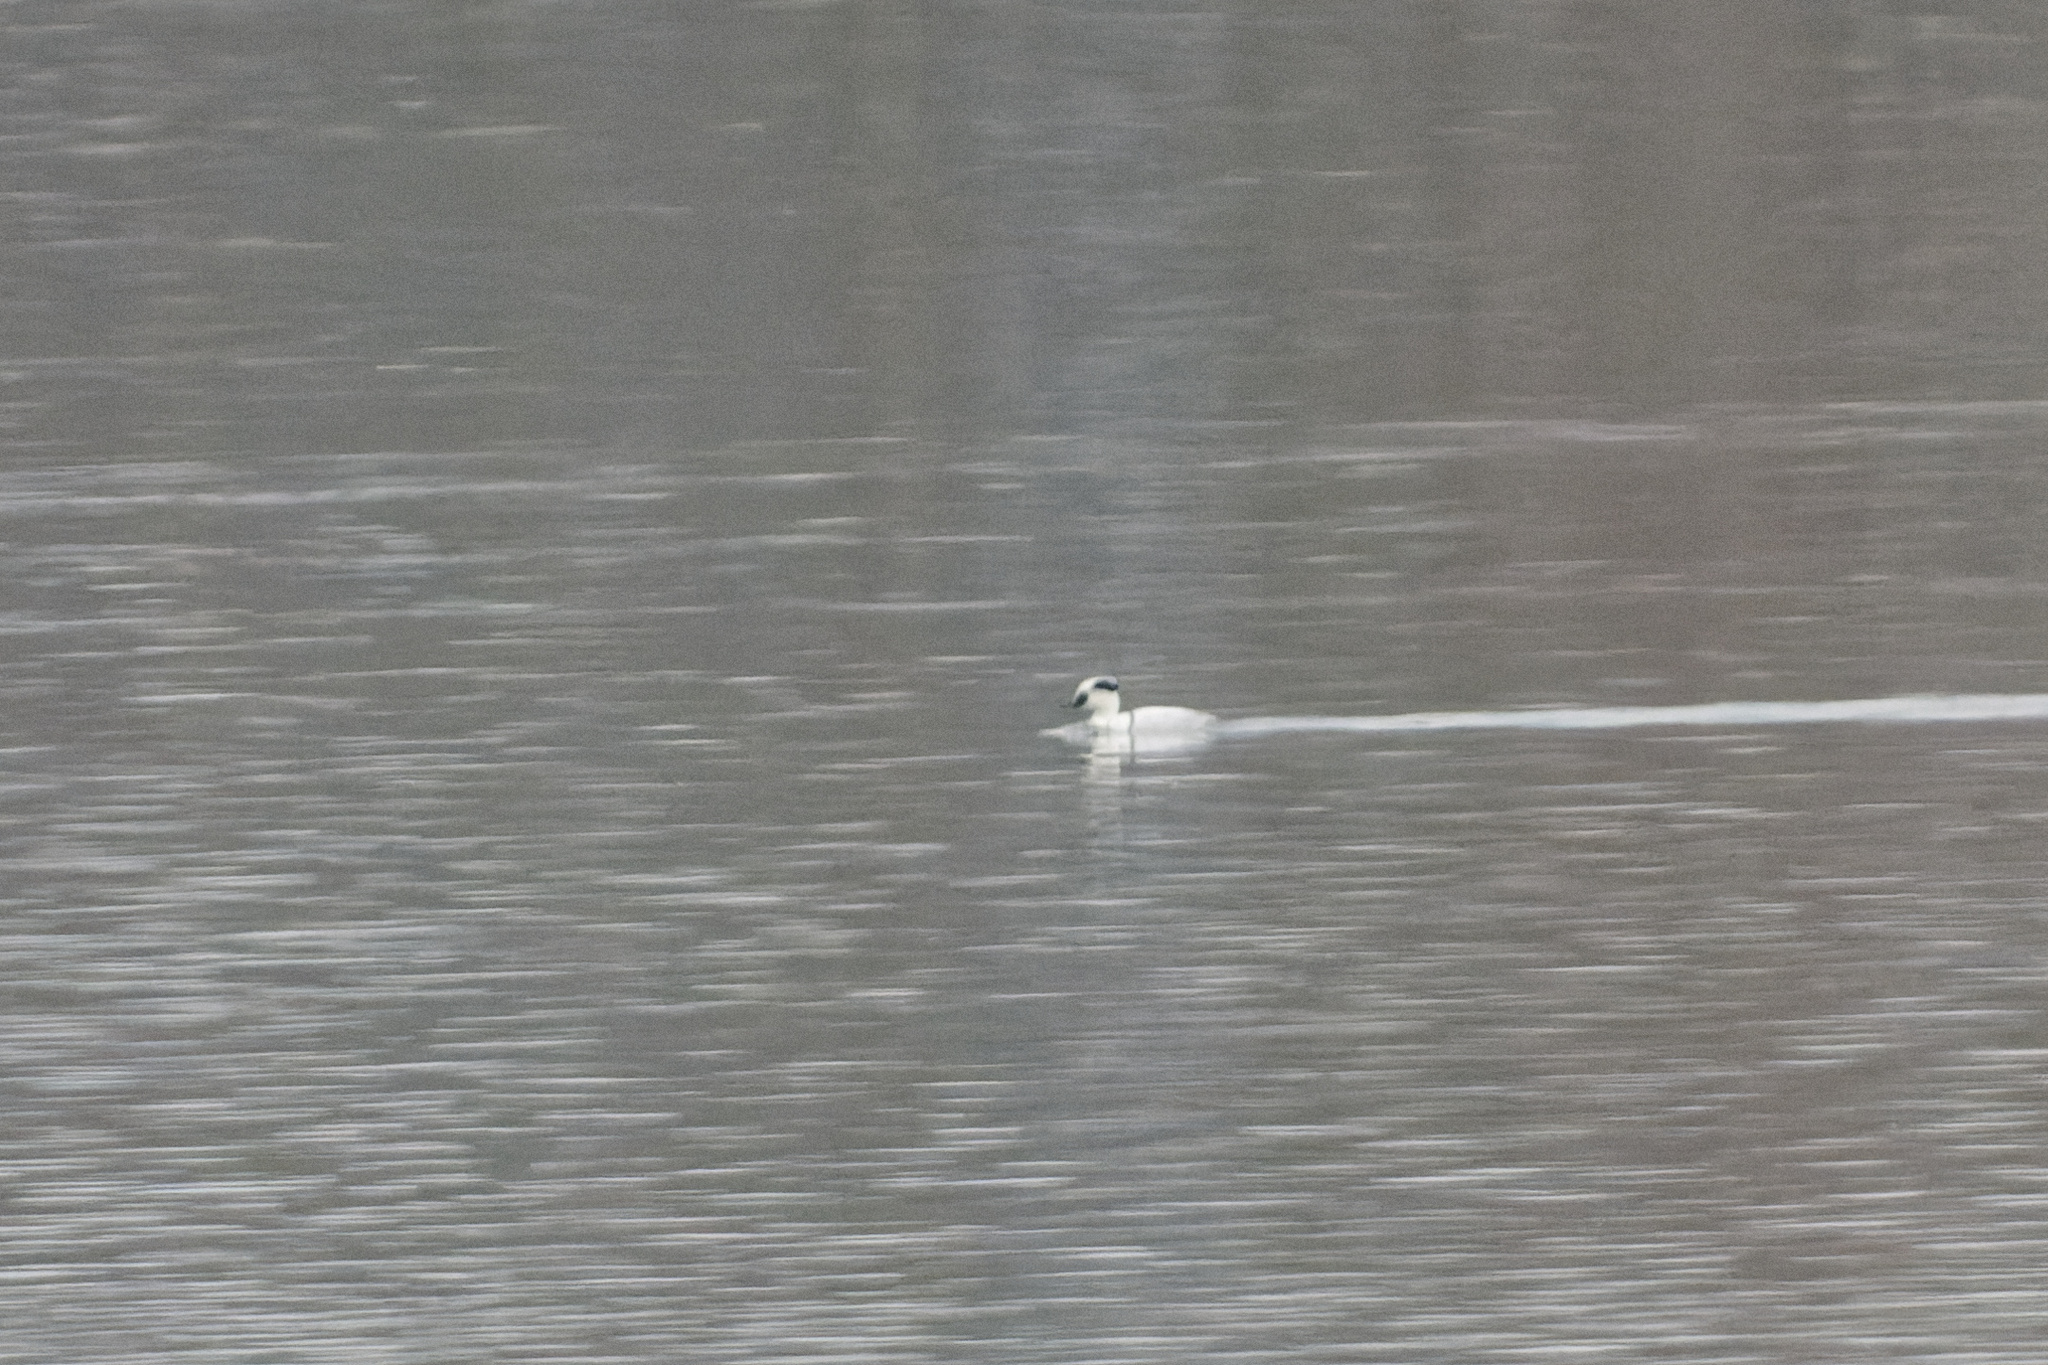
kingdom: Animalia
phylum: Chordata
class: Aves
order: Anseriformes
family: Anatidae
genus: Mergellus
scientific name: Mergellus albellus
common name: Smew
